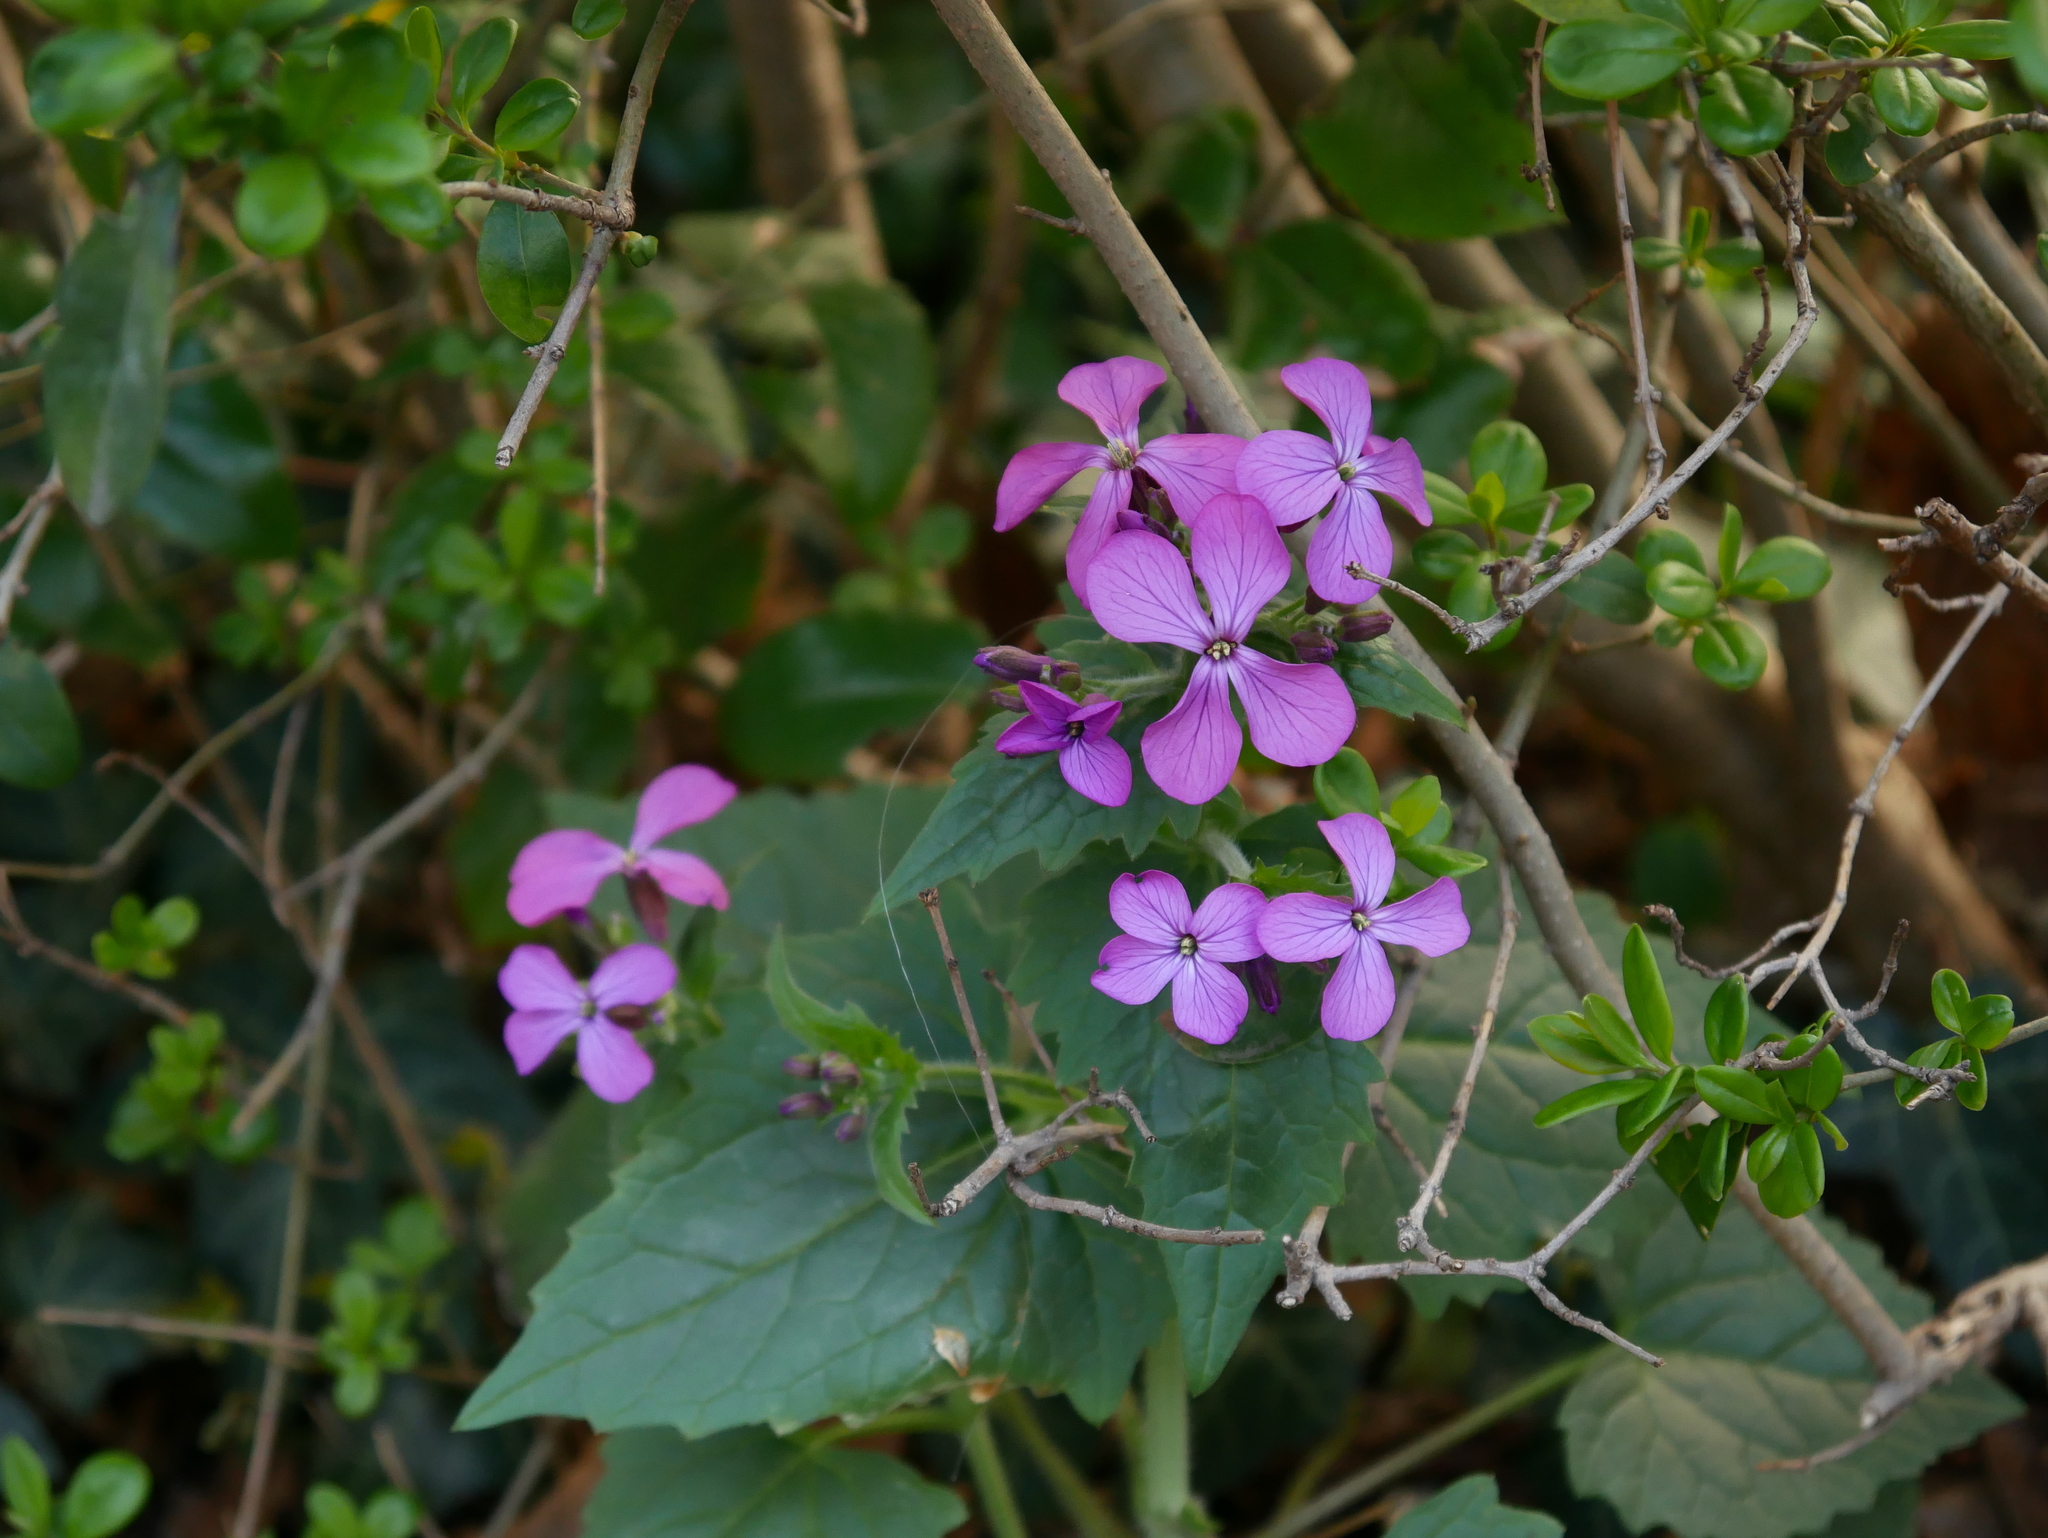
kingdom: Plantae
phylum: Tracheophyta
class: Magnoliopsida
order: Brassicales
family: Brassicaceae
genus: Lunaria
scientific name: Lunaria annua
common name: Honesty
